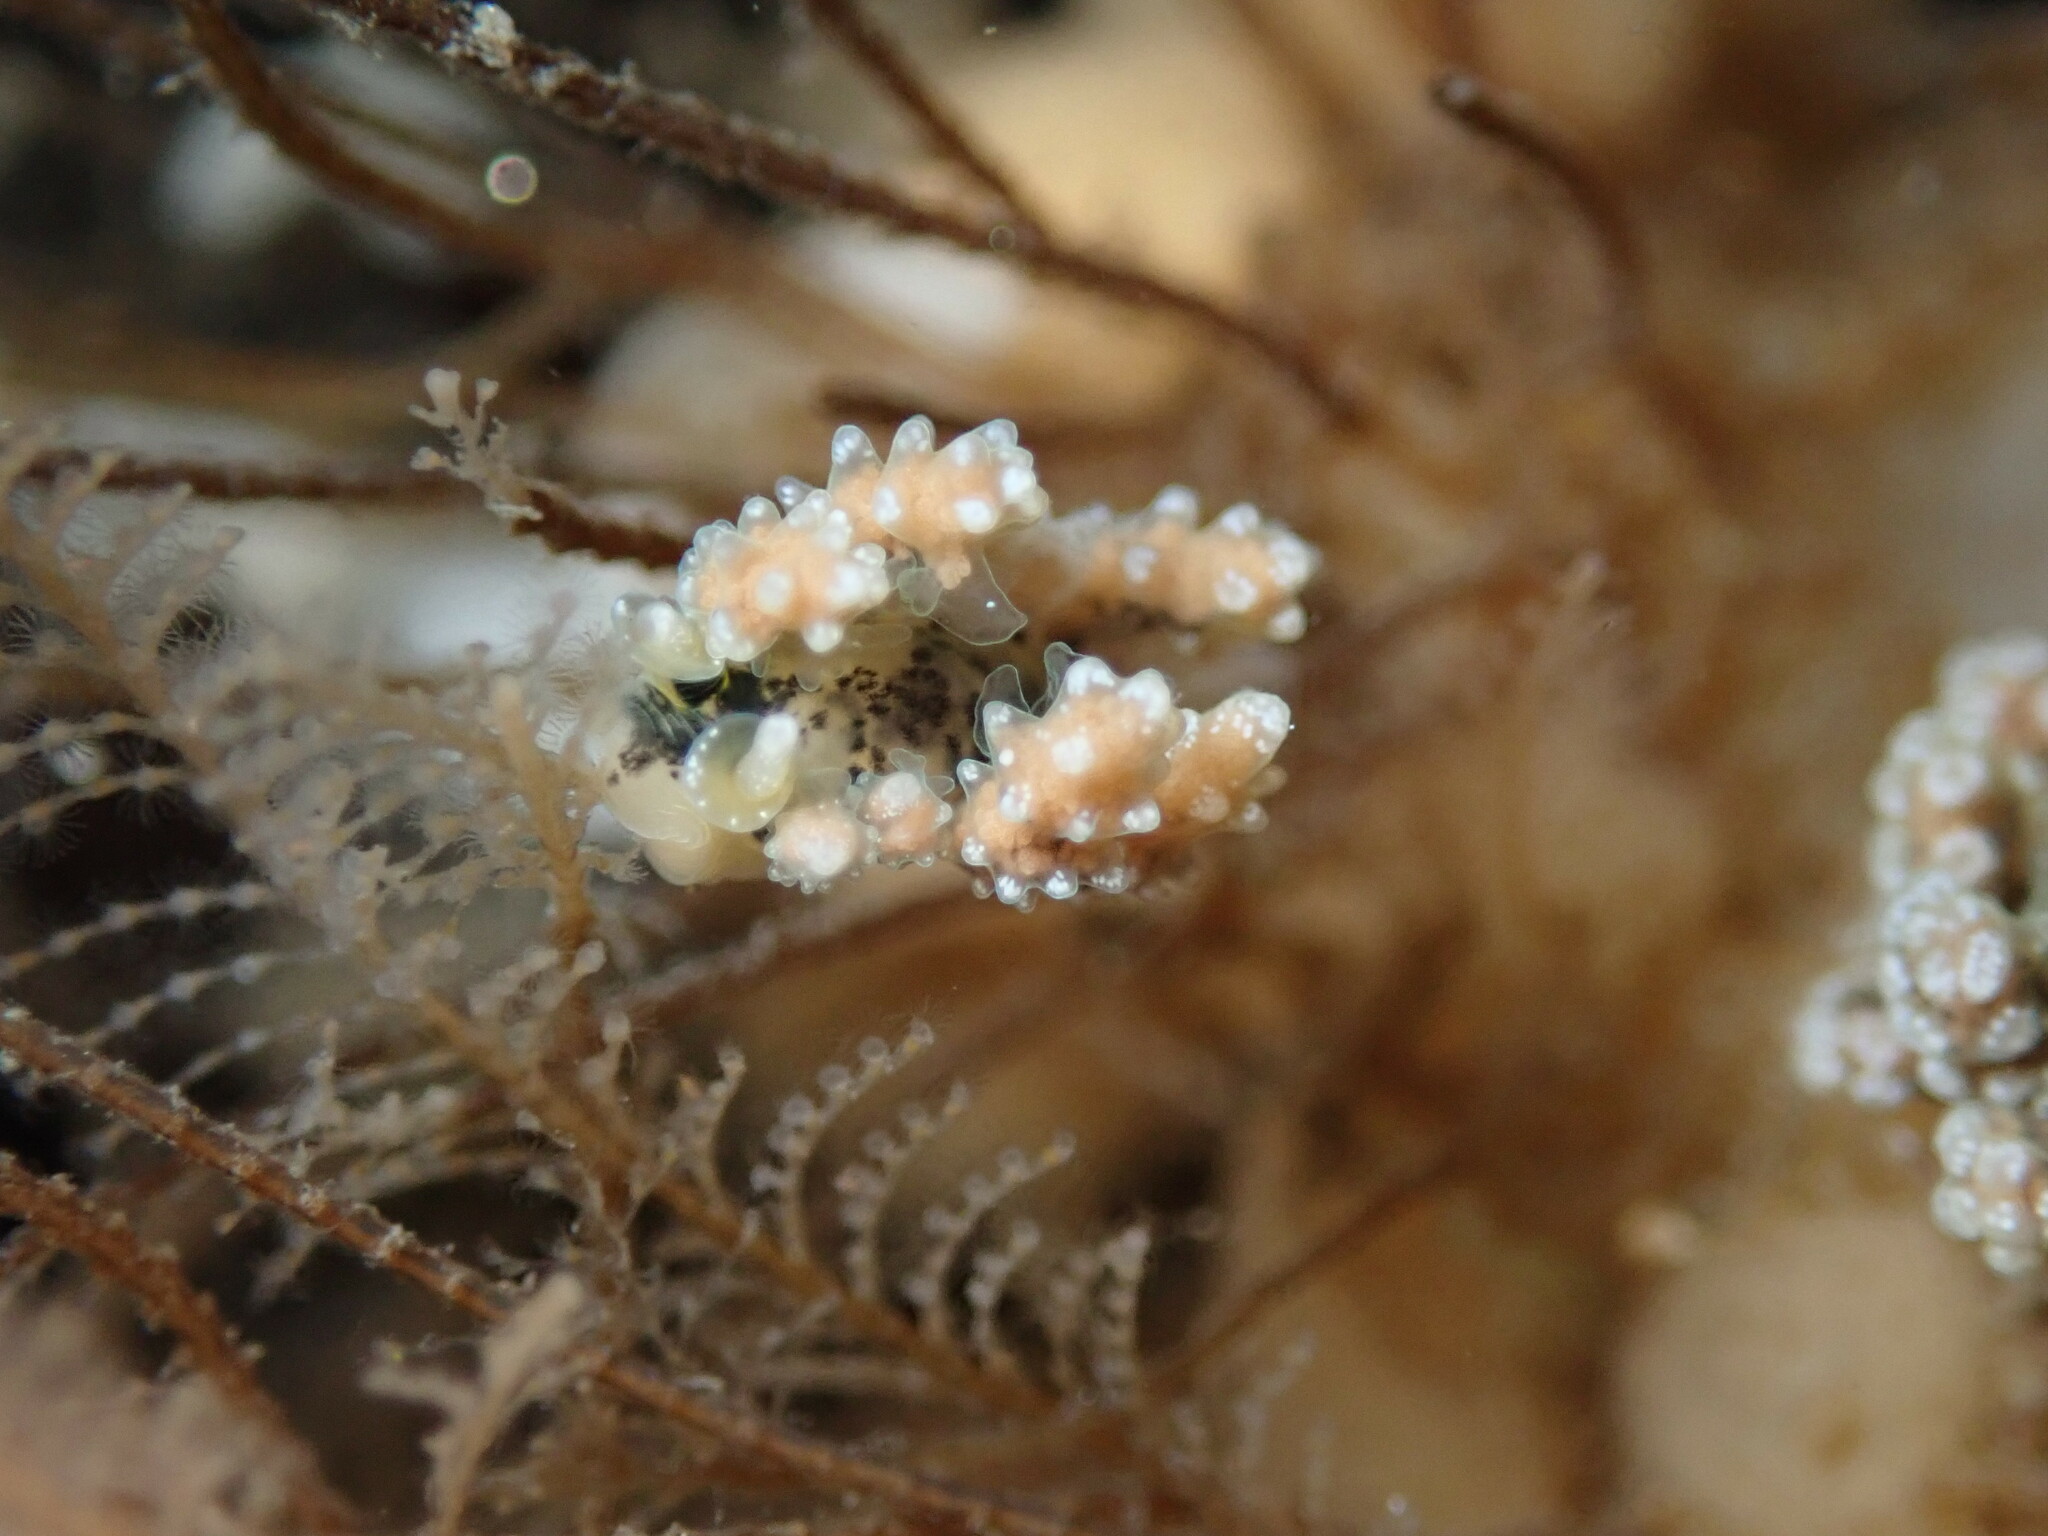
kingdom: Animalia
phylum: Mollusca
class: Gastropoda
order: Nudibranchia
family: Dotidae
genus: Doto
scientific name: Doto kya
